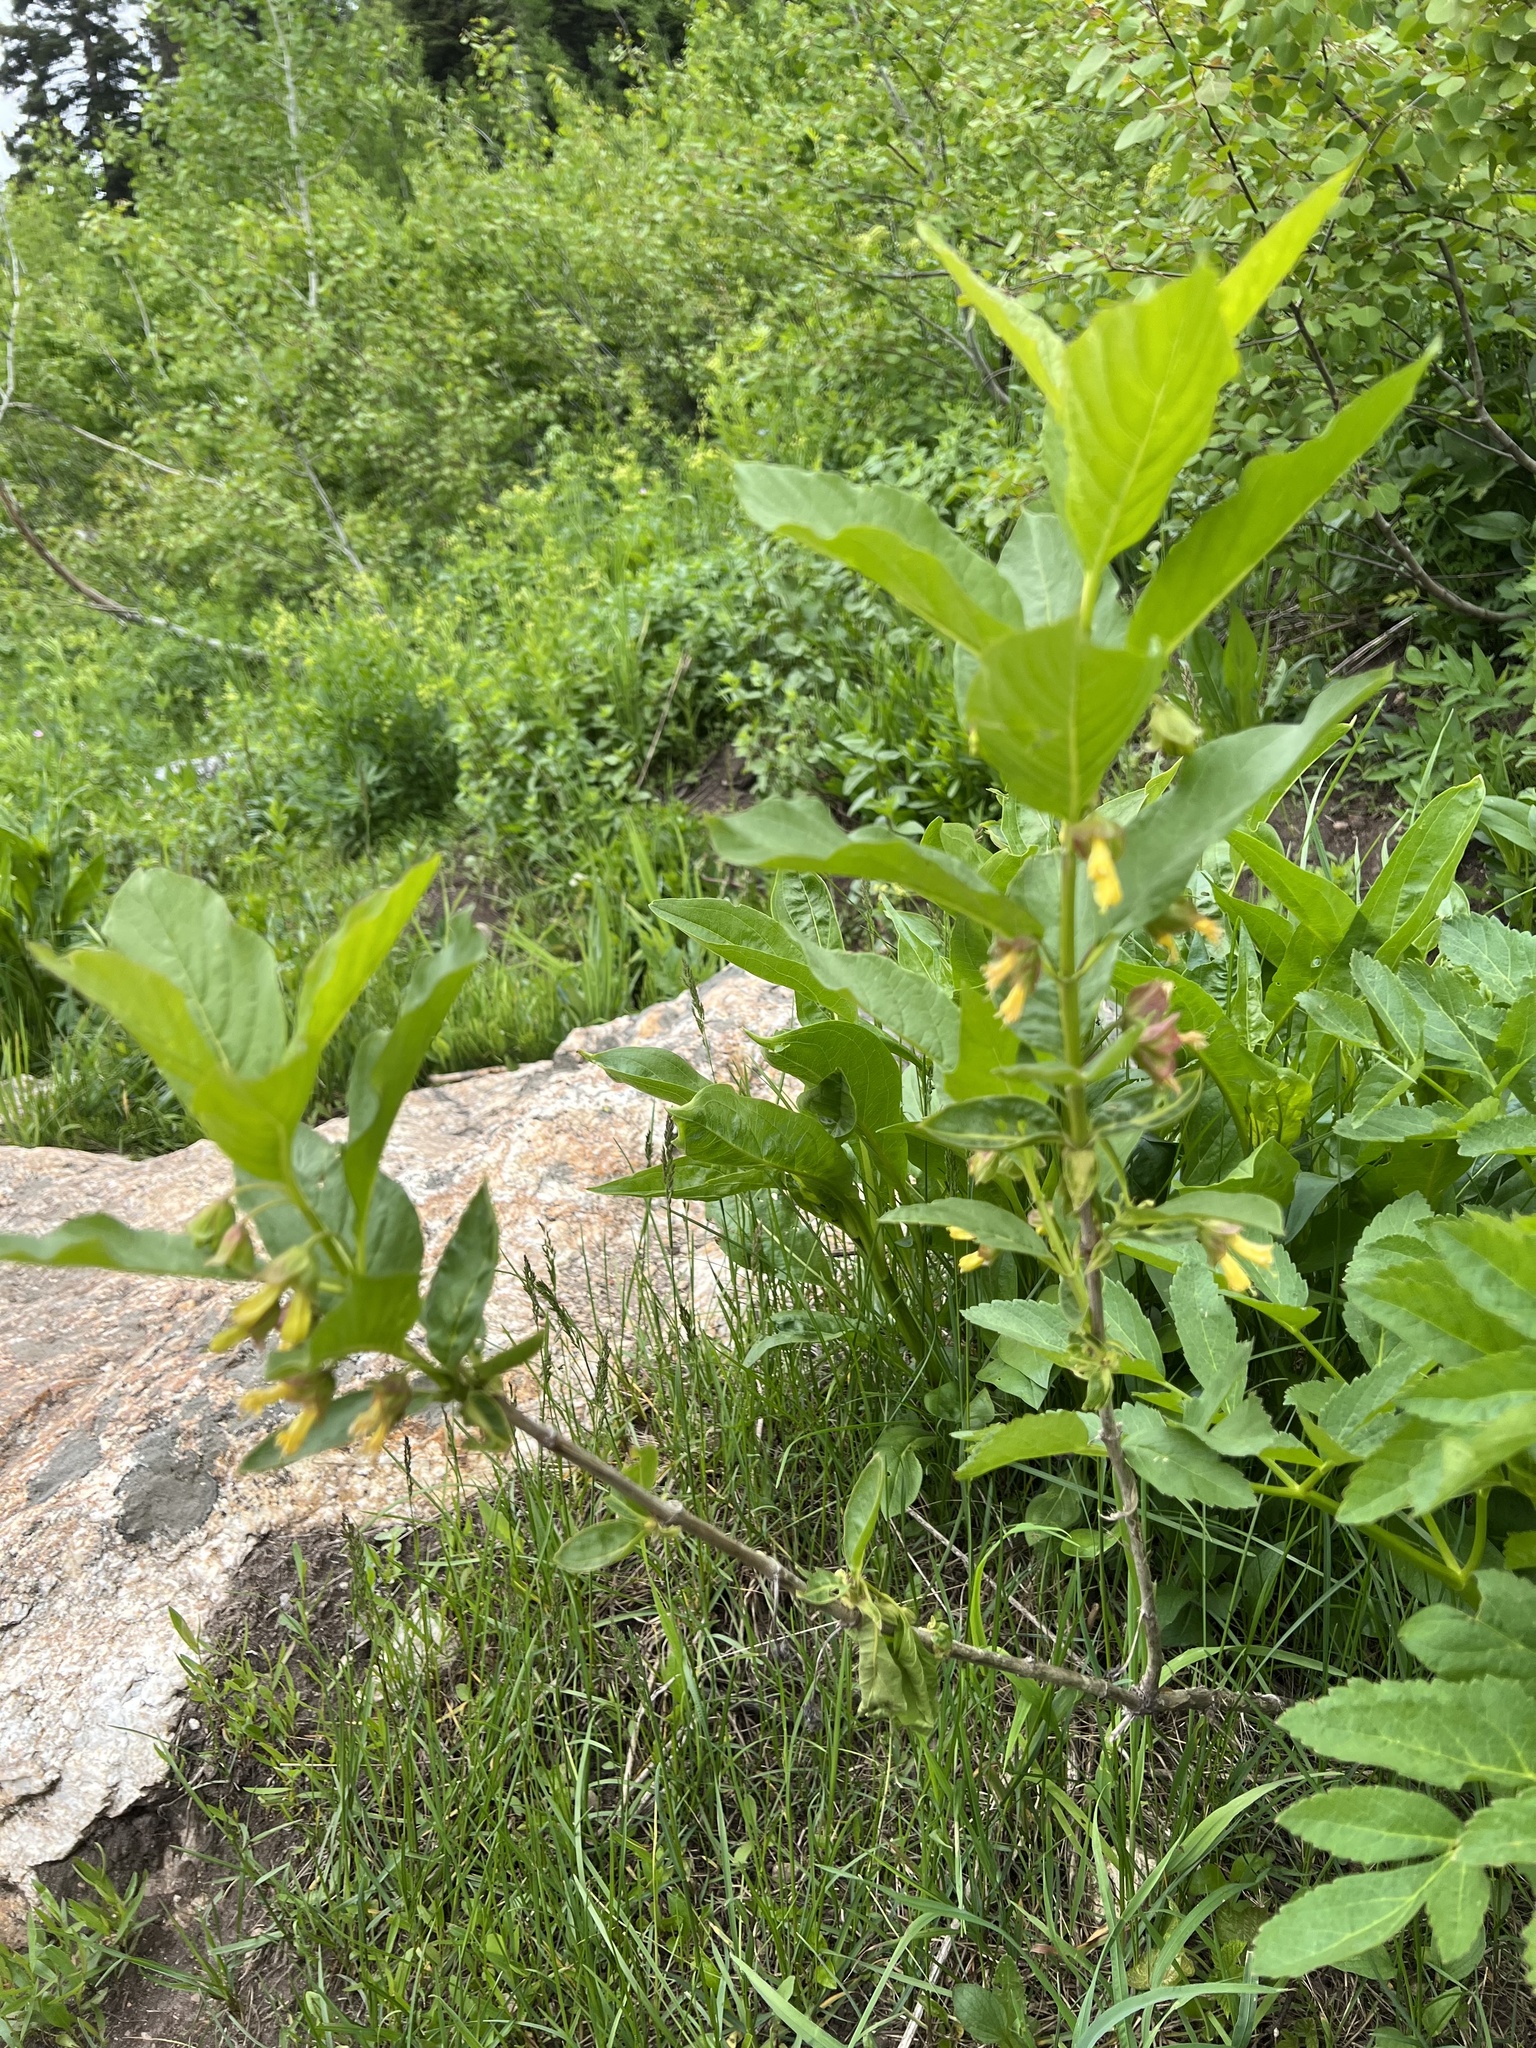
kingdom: Plantae
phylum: Tracheophyta
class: Magnoliopsida
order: Dipsacales
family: Caprifoliaceae
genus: Lonicera
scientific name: Lonicera involucrata
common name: Californian honeysuckle
